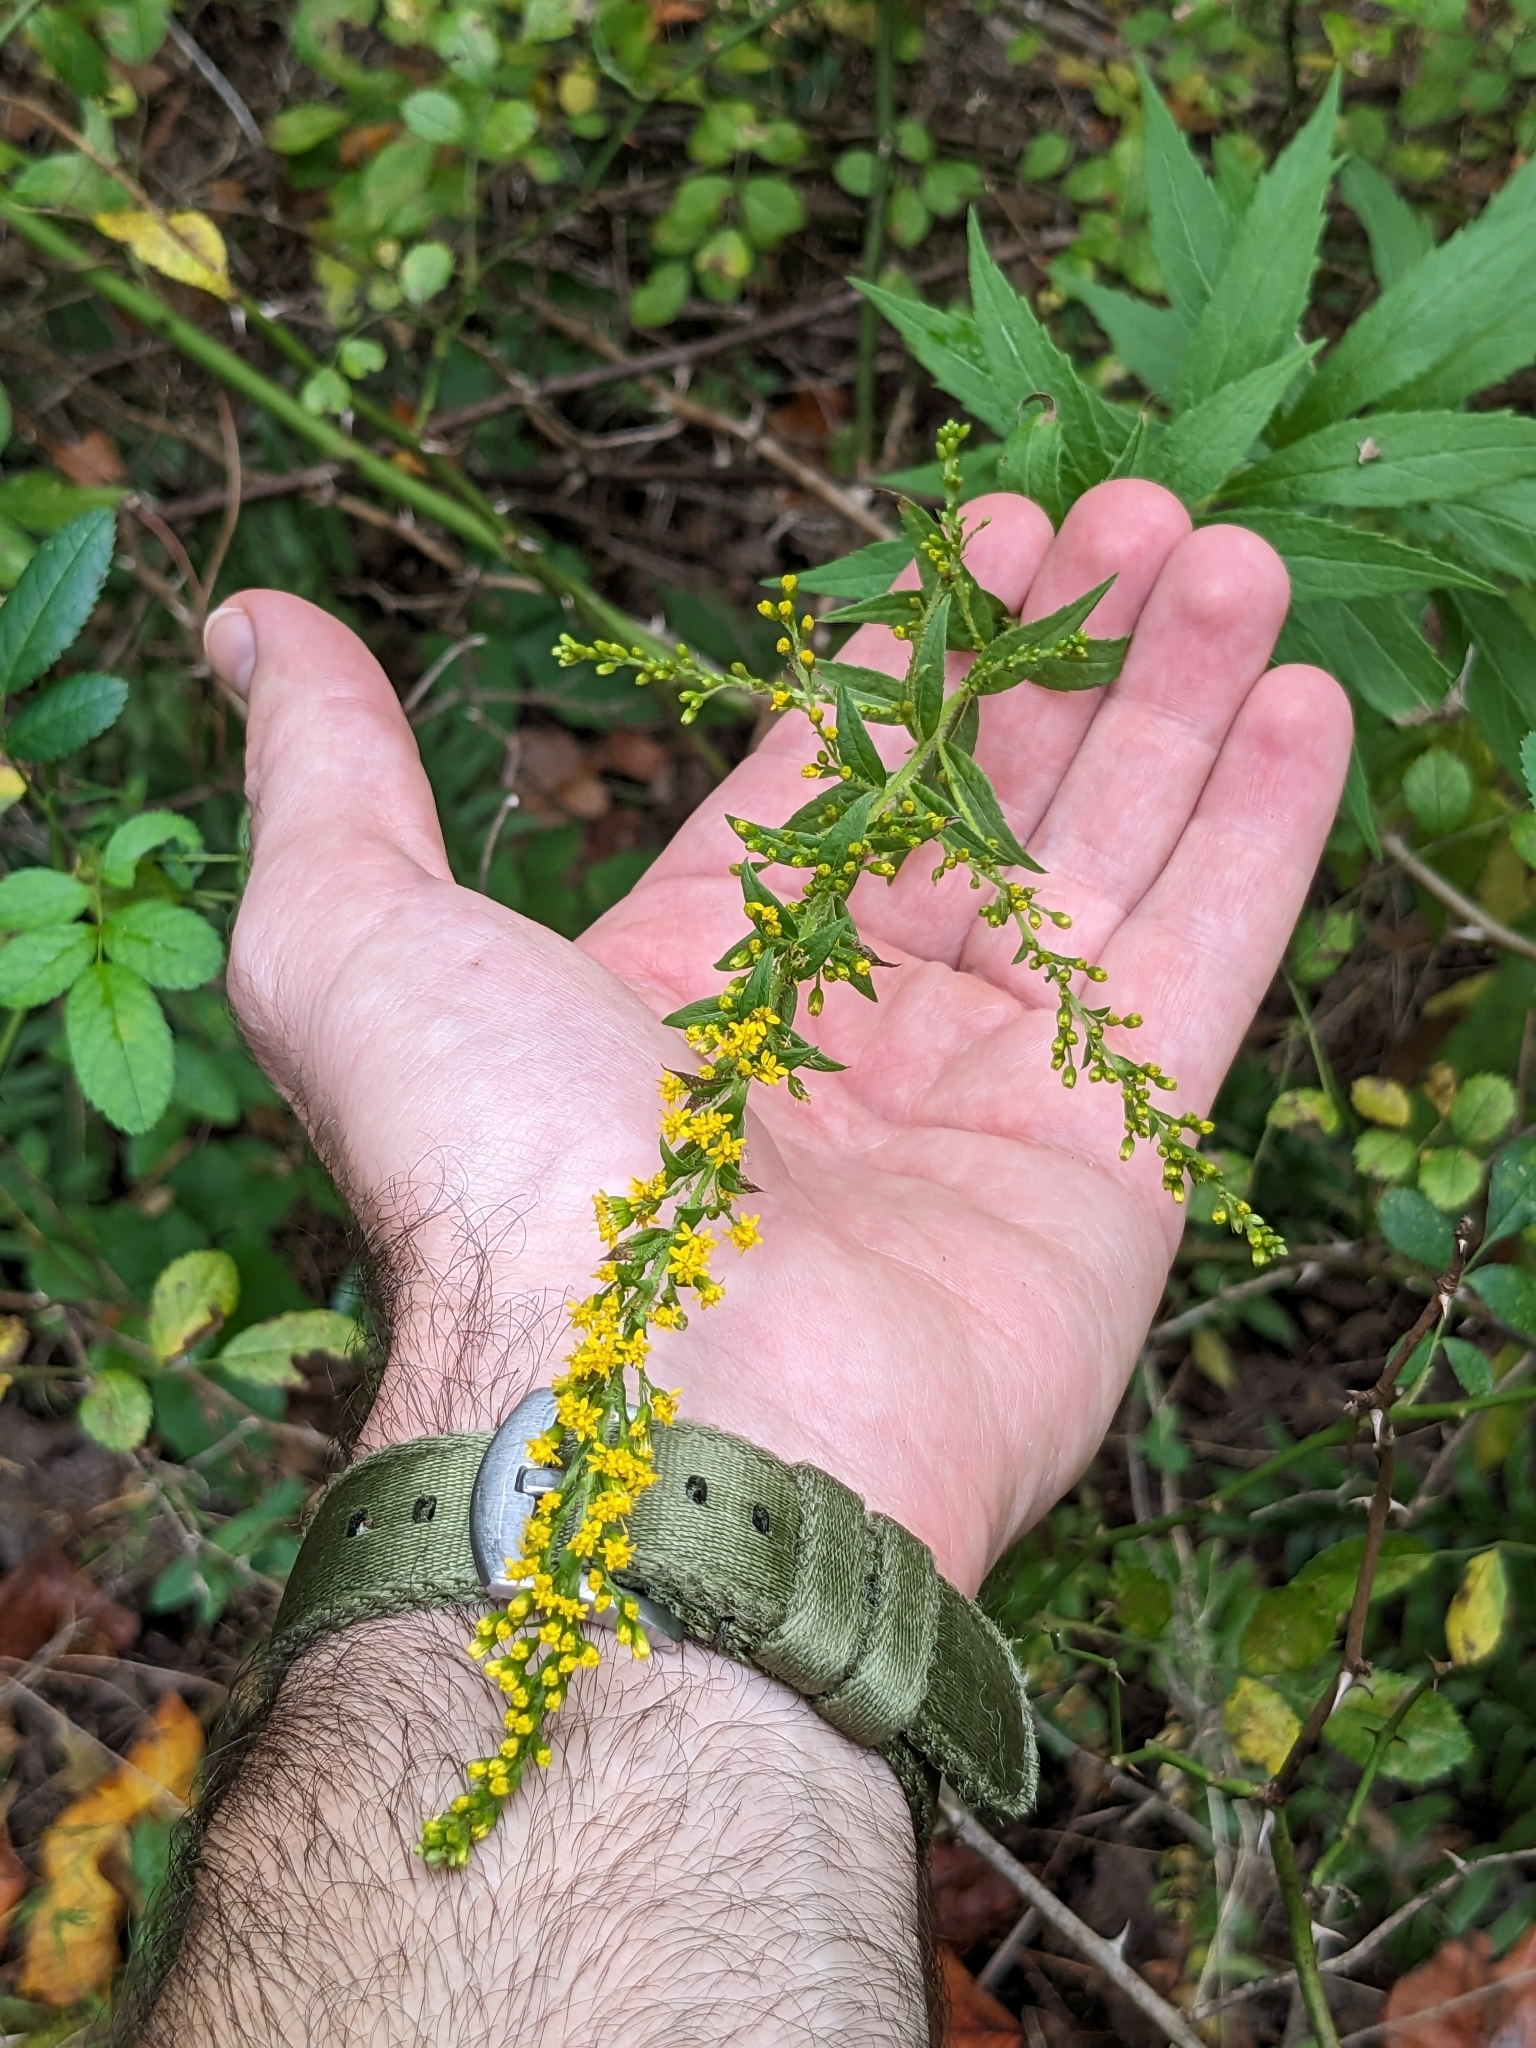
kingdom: Plantae
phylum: Tracheophyta
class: Magnoliopsida
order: Asterales
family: Asteraceae
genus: Solidago
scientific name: Solidago rugosa
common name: Rough-stemmed goldenrod
